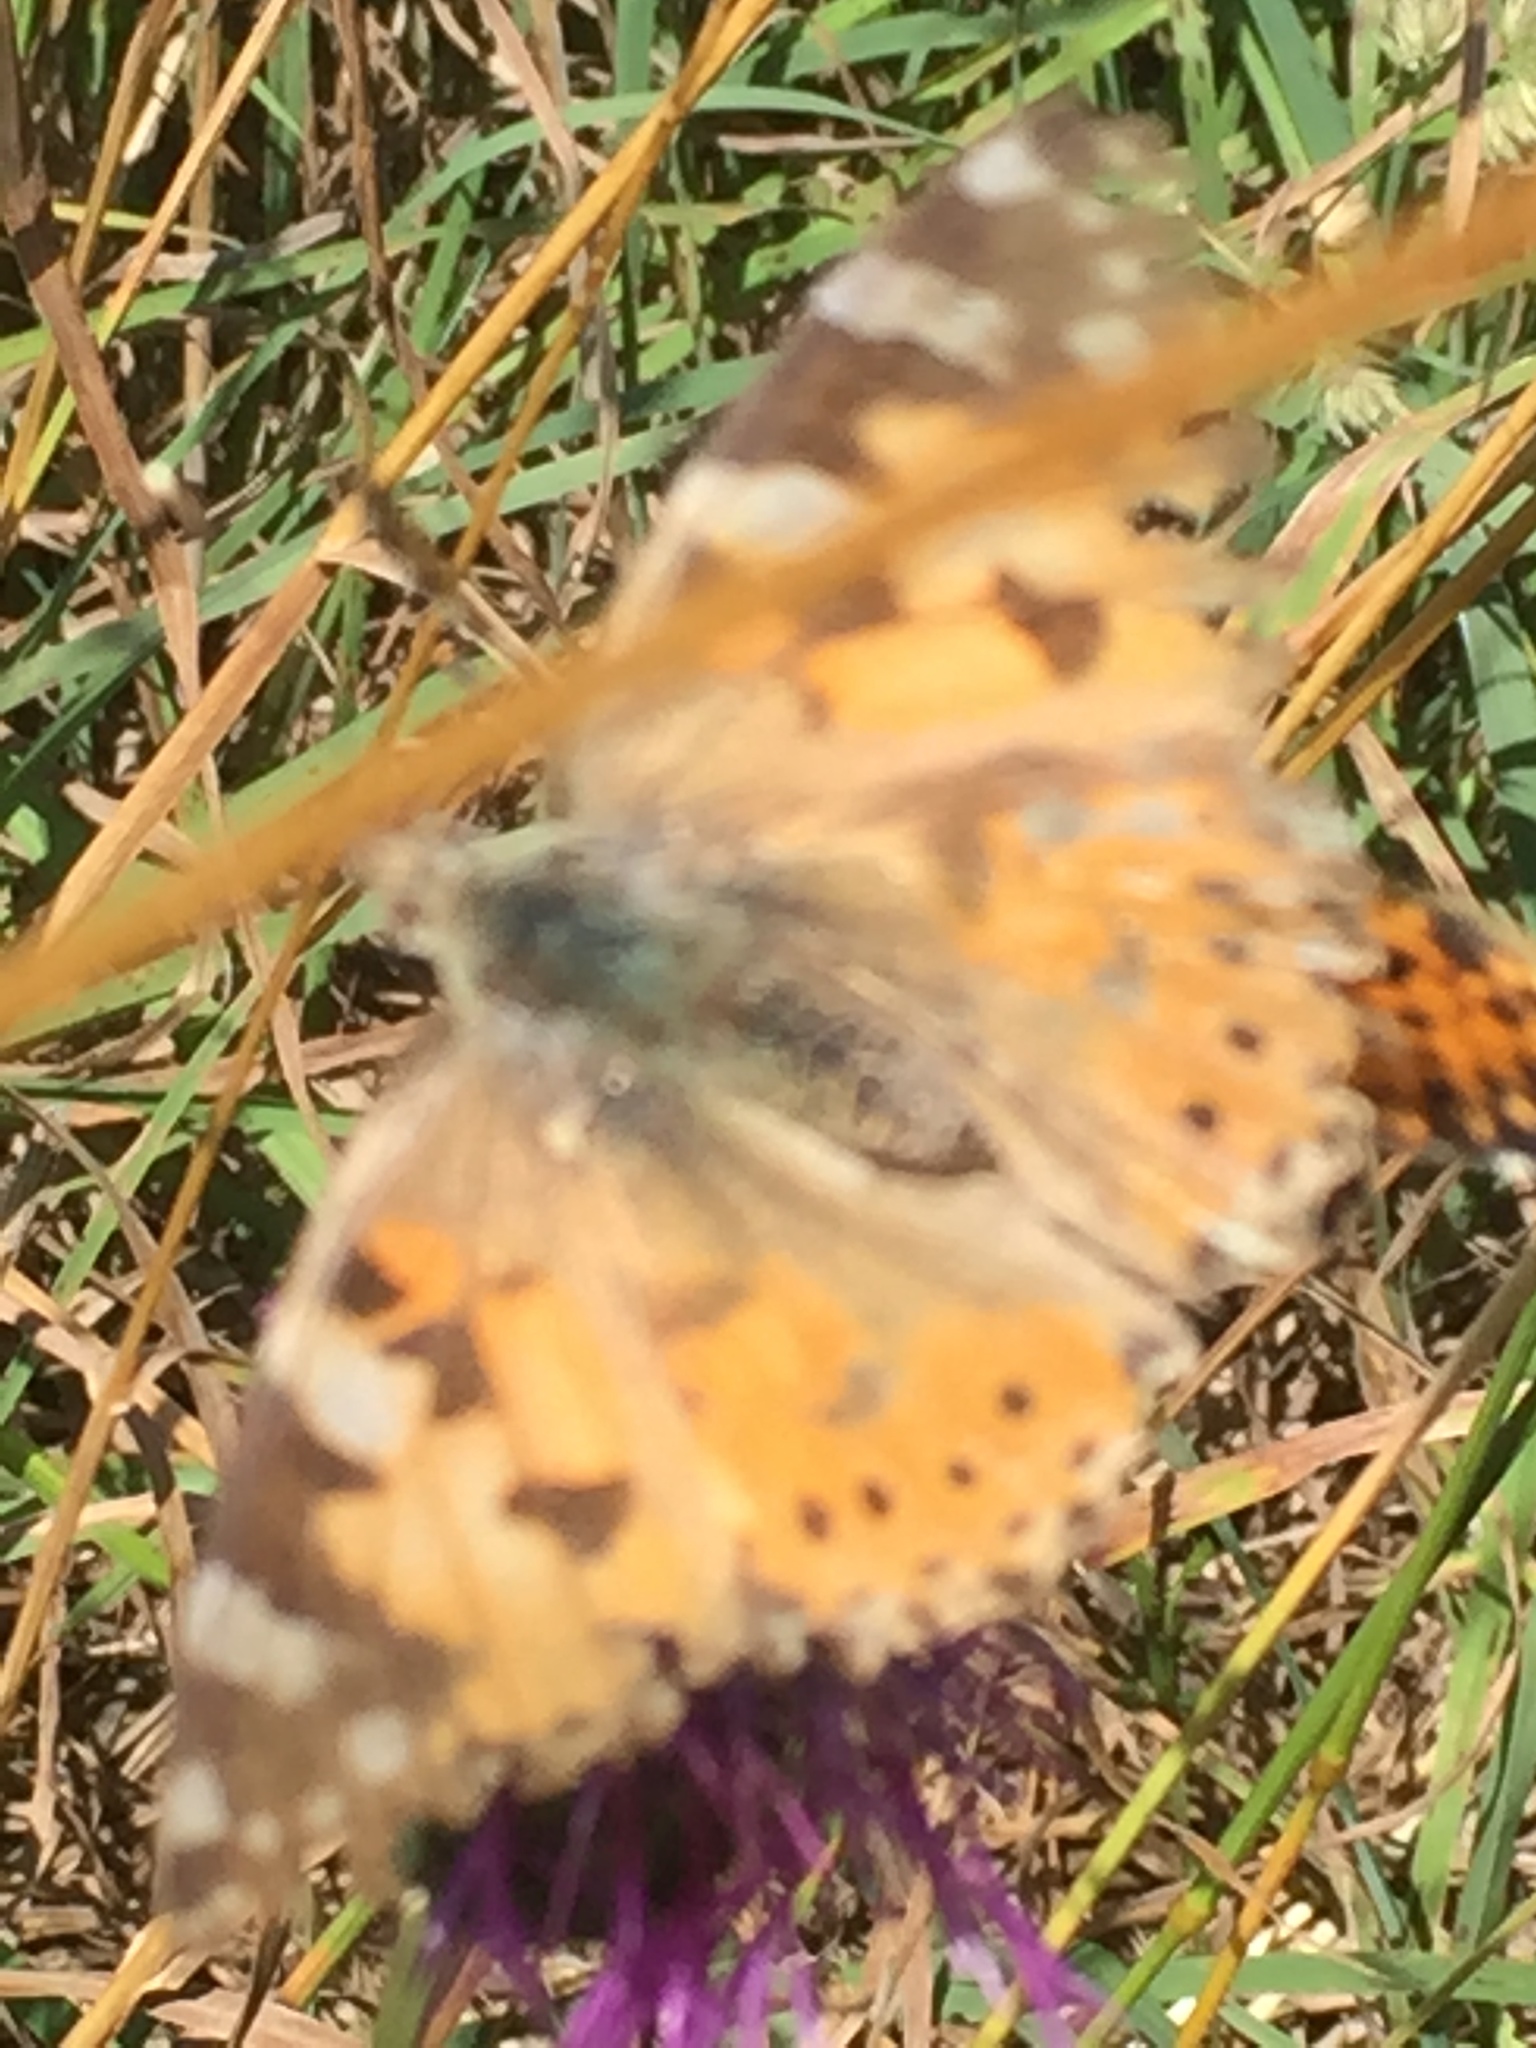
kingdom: Animalia
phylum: Arthropoda
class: Insecta
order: Lepidoptera
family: Nymphalidae
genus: Vanessa
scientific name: Vanessa cardui
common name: Painted lady
